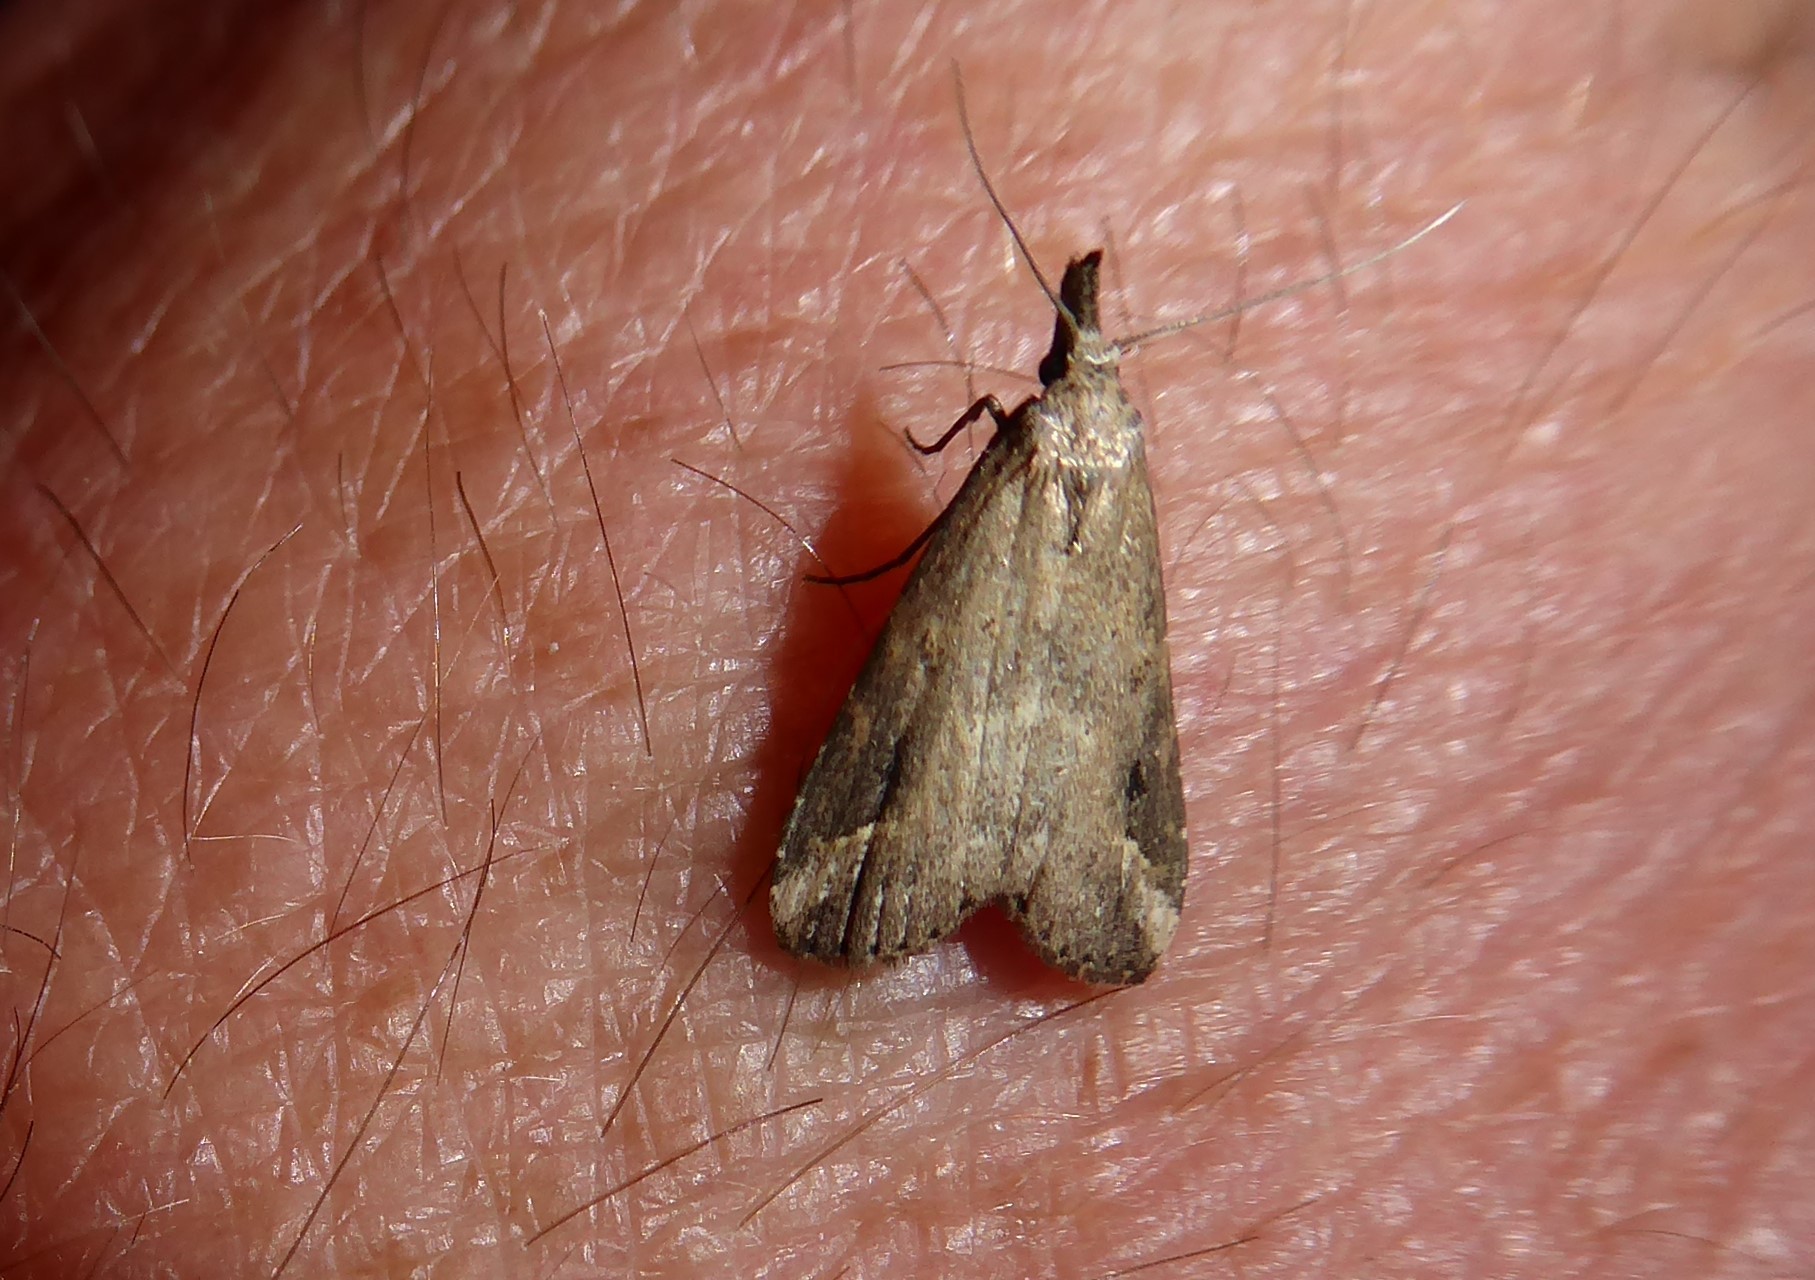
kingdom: Animalia
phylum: Arthropoda
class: Insecta
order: Lepidoptera
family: Erebidae
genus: Schrankia
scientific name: Schrankia costaestrigalis
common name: Pinion-streaked snout
